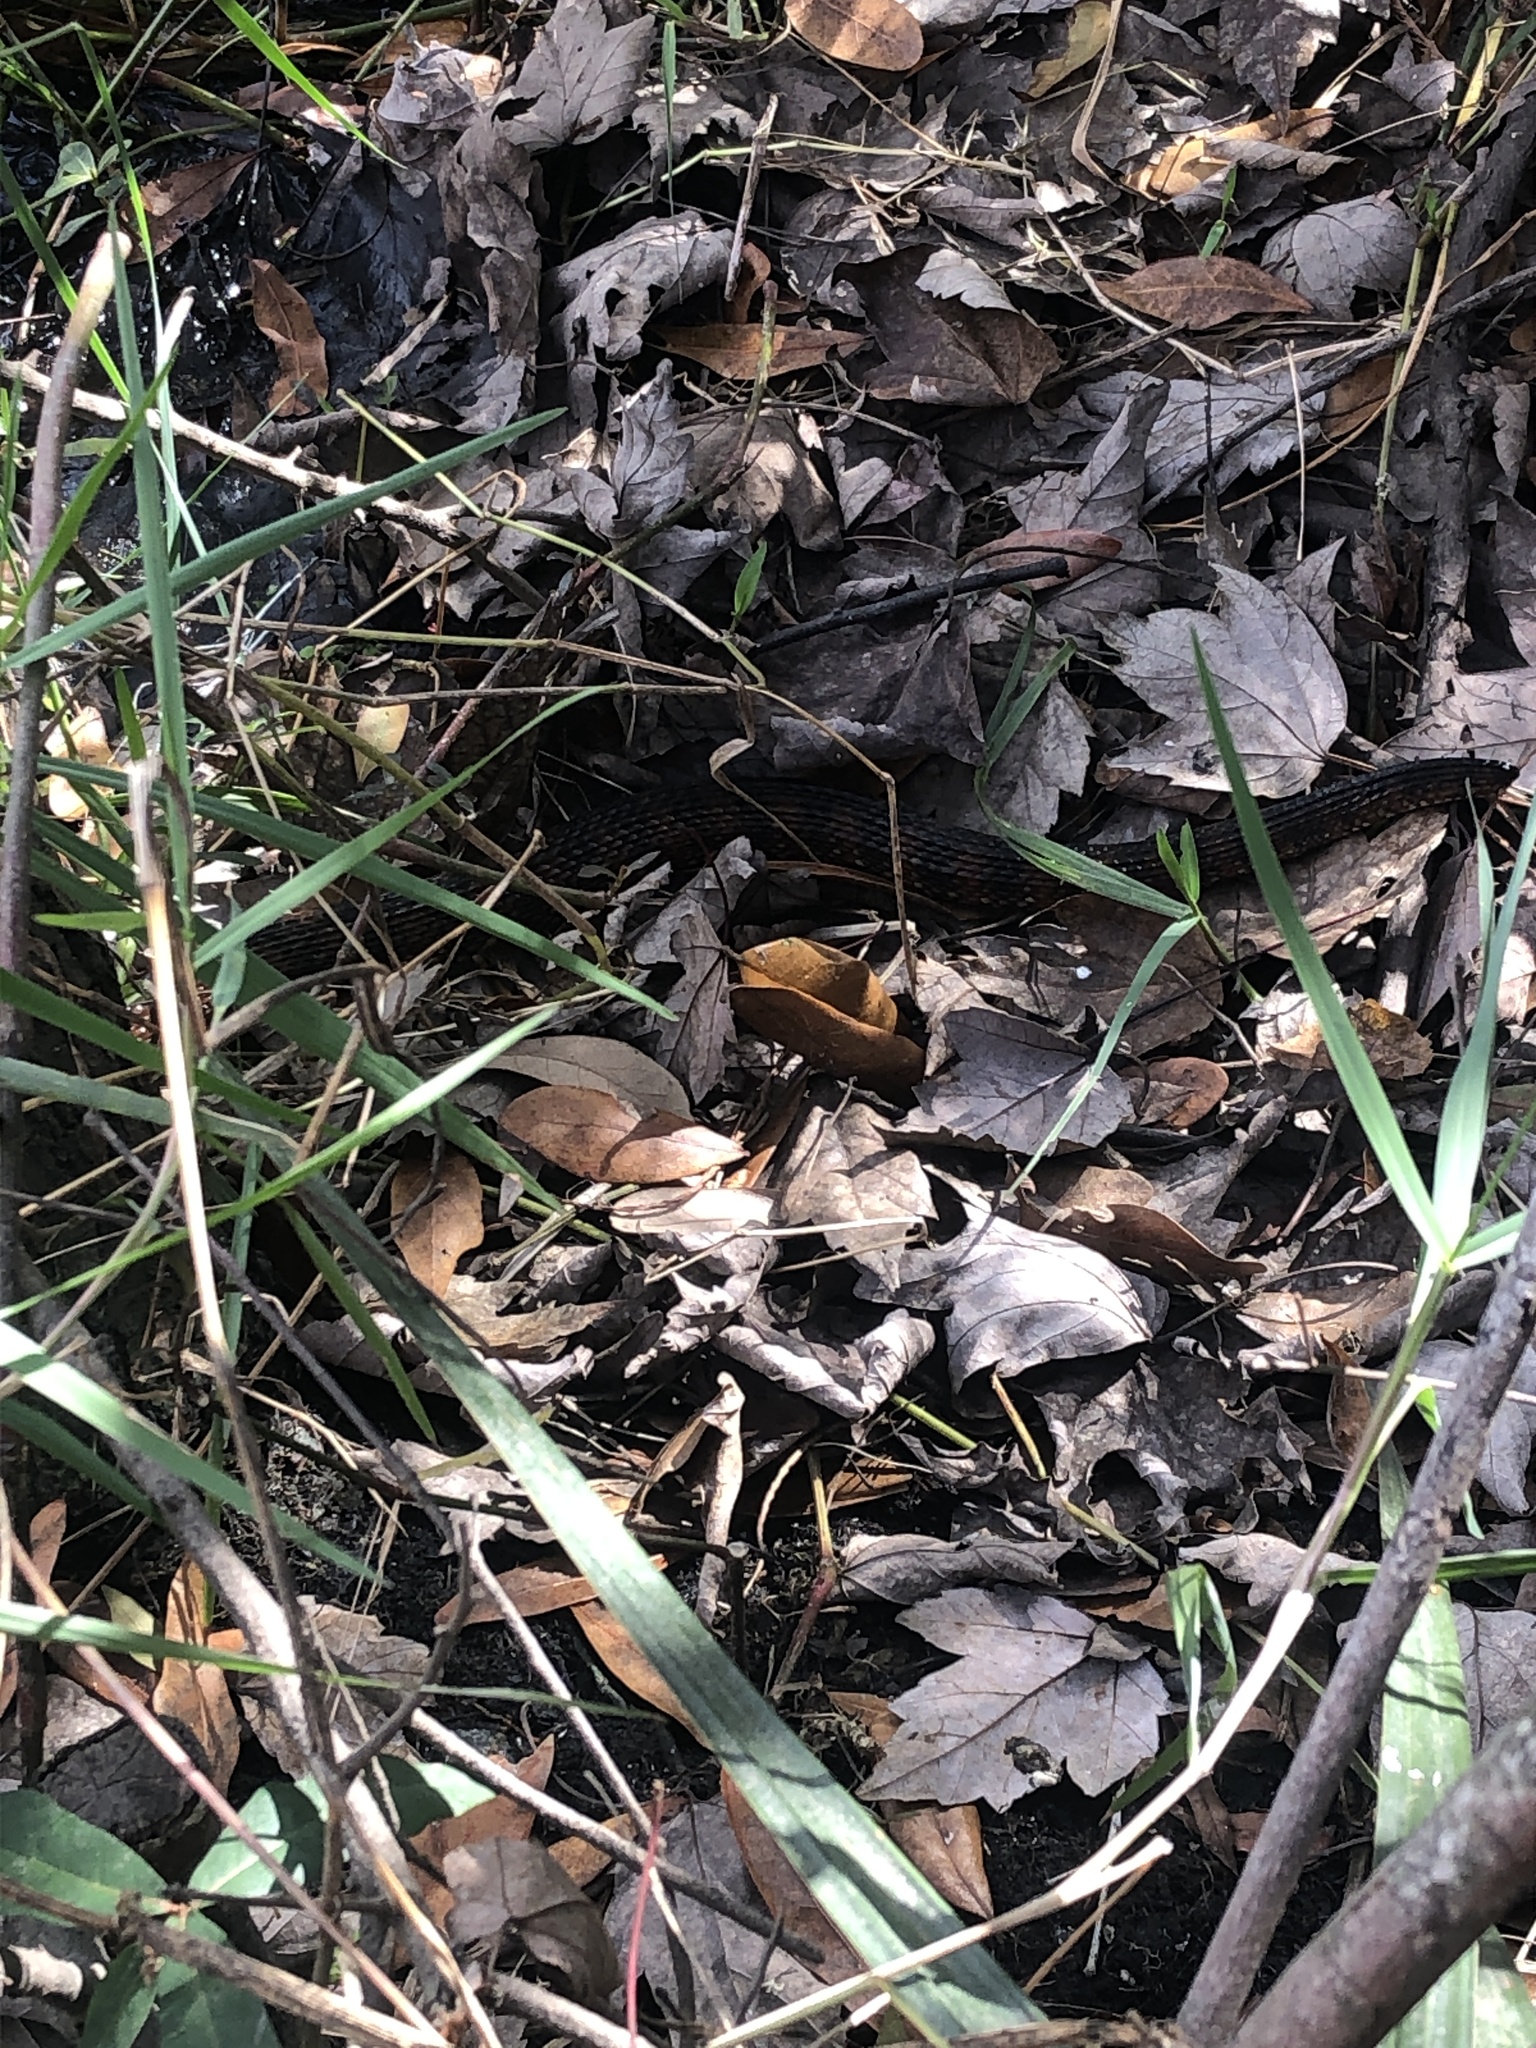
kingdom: Animalia
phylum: Chordata
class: Squamata
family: Colubridae
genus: Nerodia
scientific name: Nerodia fasciata
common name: Southern water snake
